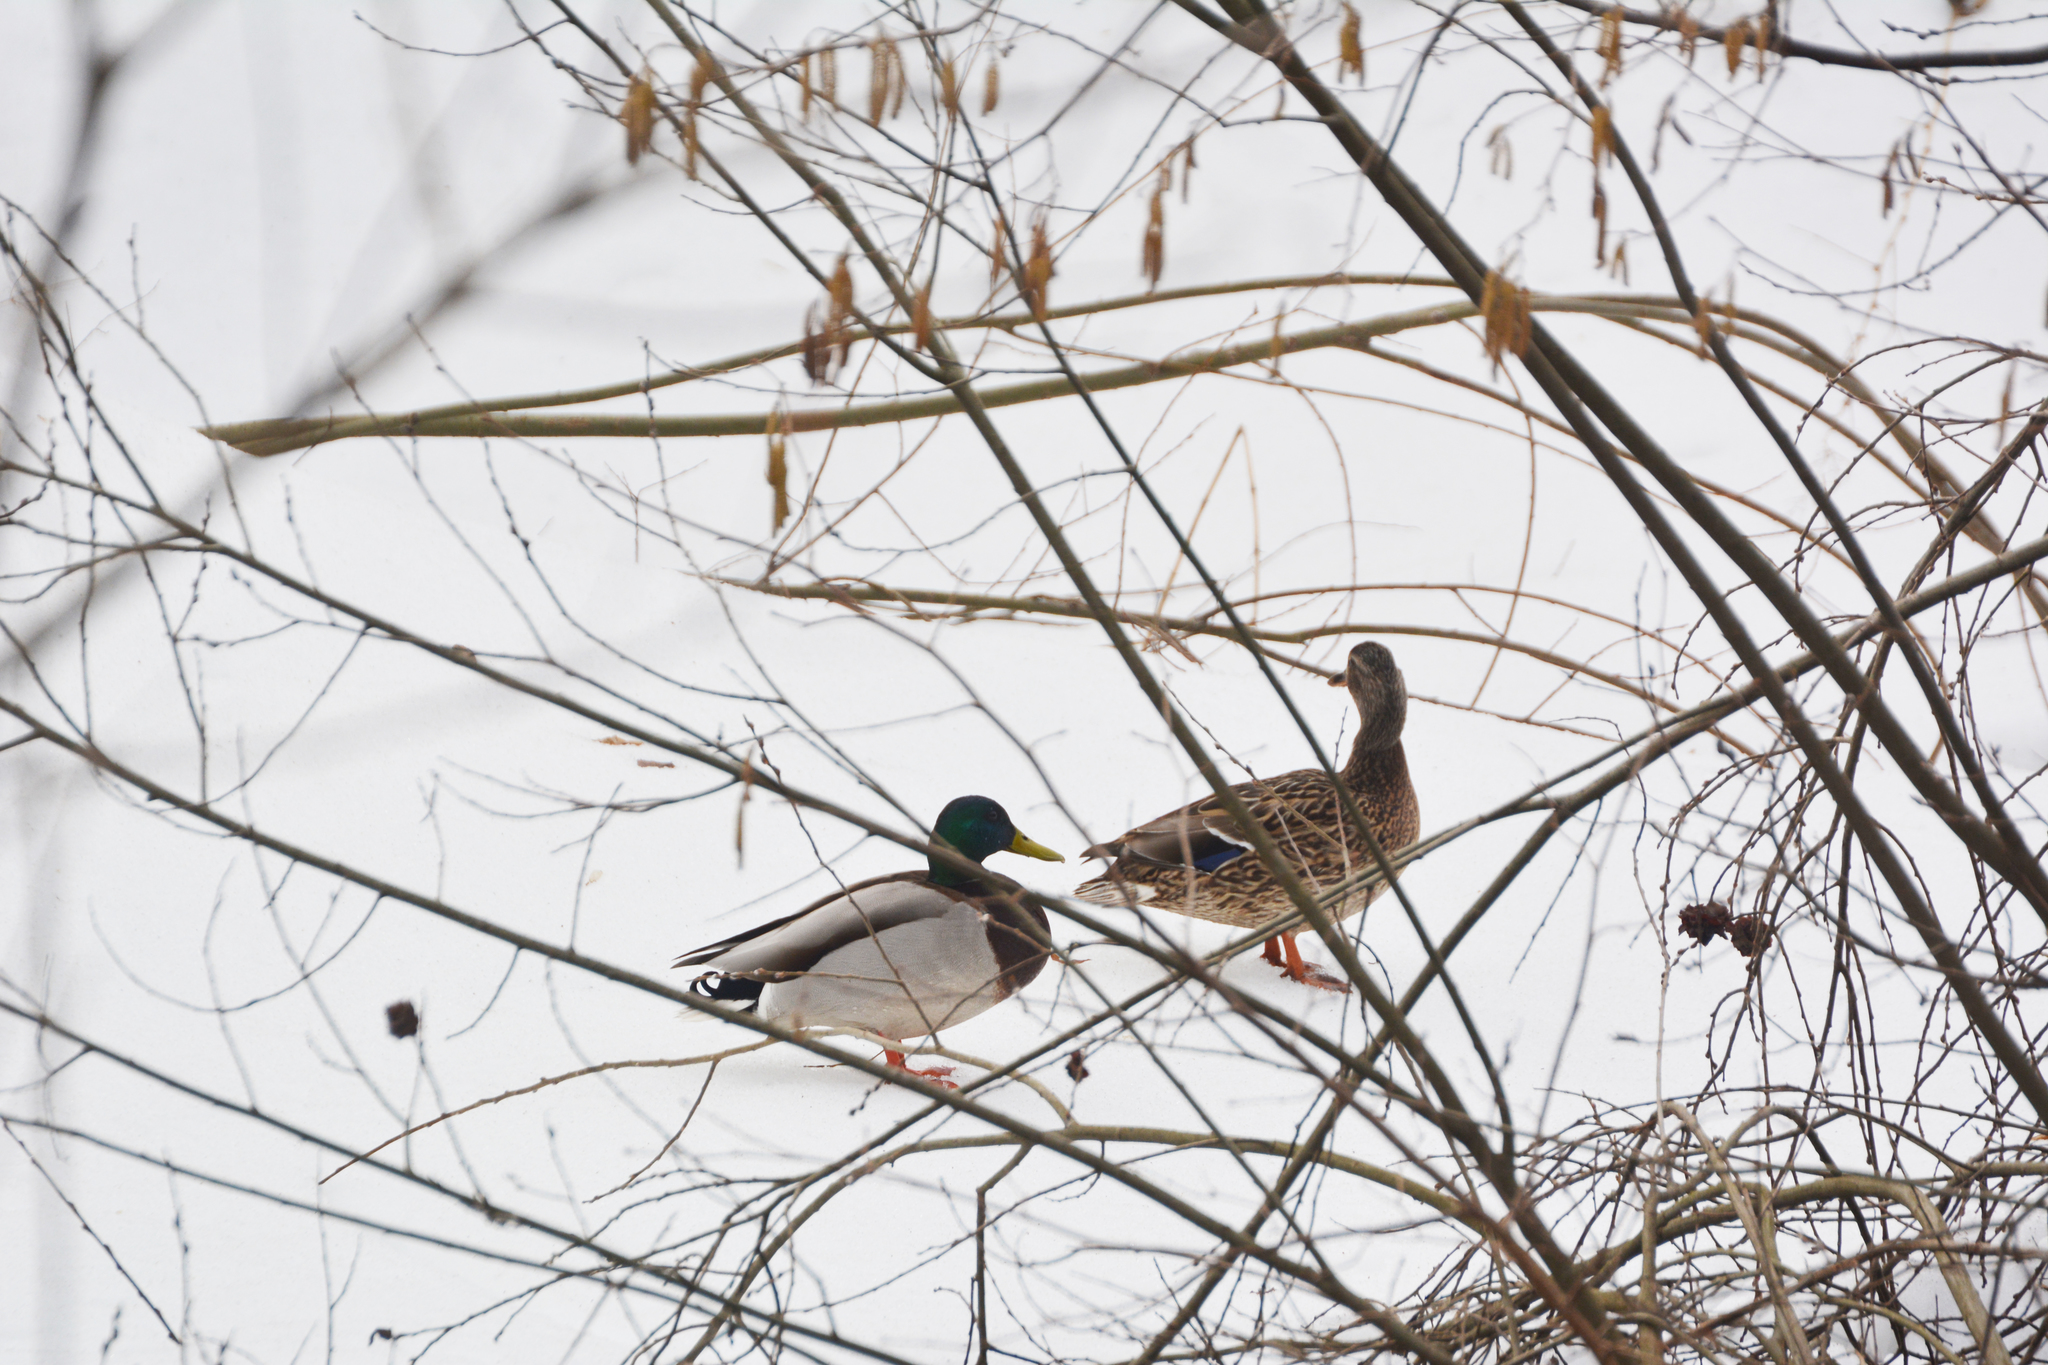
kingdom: Animalia
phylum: Chordata
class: Aves
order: Anseriformes
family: Anatidae
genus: Anas
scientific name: Anas platyrhynchos
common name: Mallard
